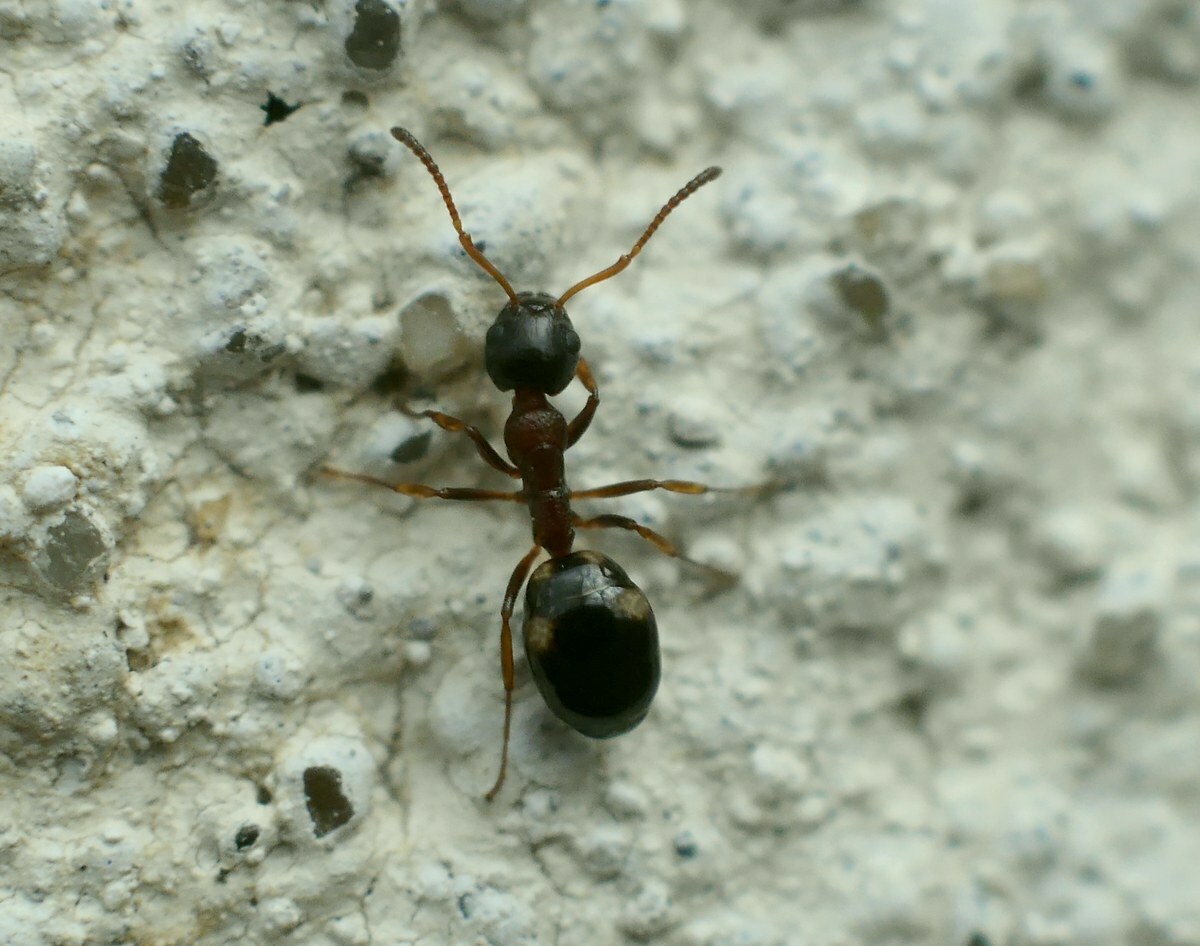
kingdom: Animalia
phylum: Arthropoda
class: Insecta
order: Hymenoptera
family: Formicidae
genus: Dolichoderus
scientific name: Dolichoderus quadripunctatus
